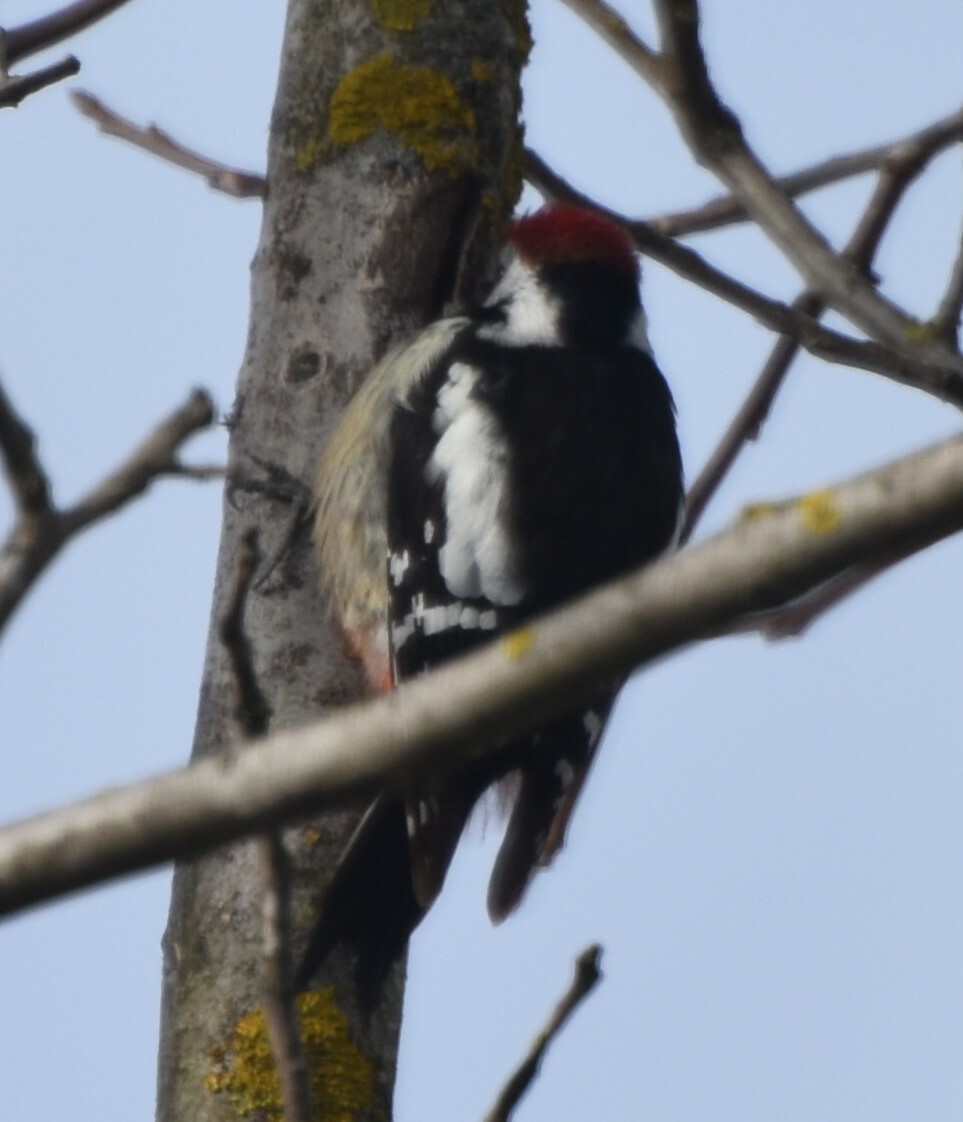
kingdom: Animalia
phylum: Chordata
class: Aves
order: Piciformes
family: Picidae
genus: Dendrocoptes
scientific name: Dendrocoptes medius
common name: Middle spotted woodpecker
